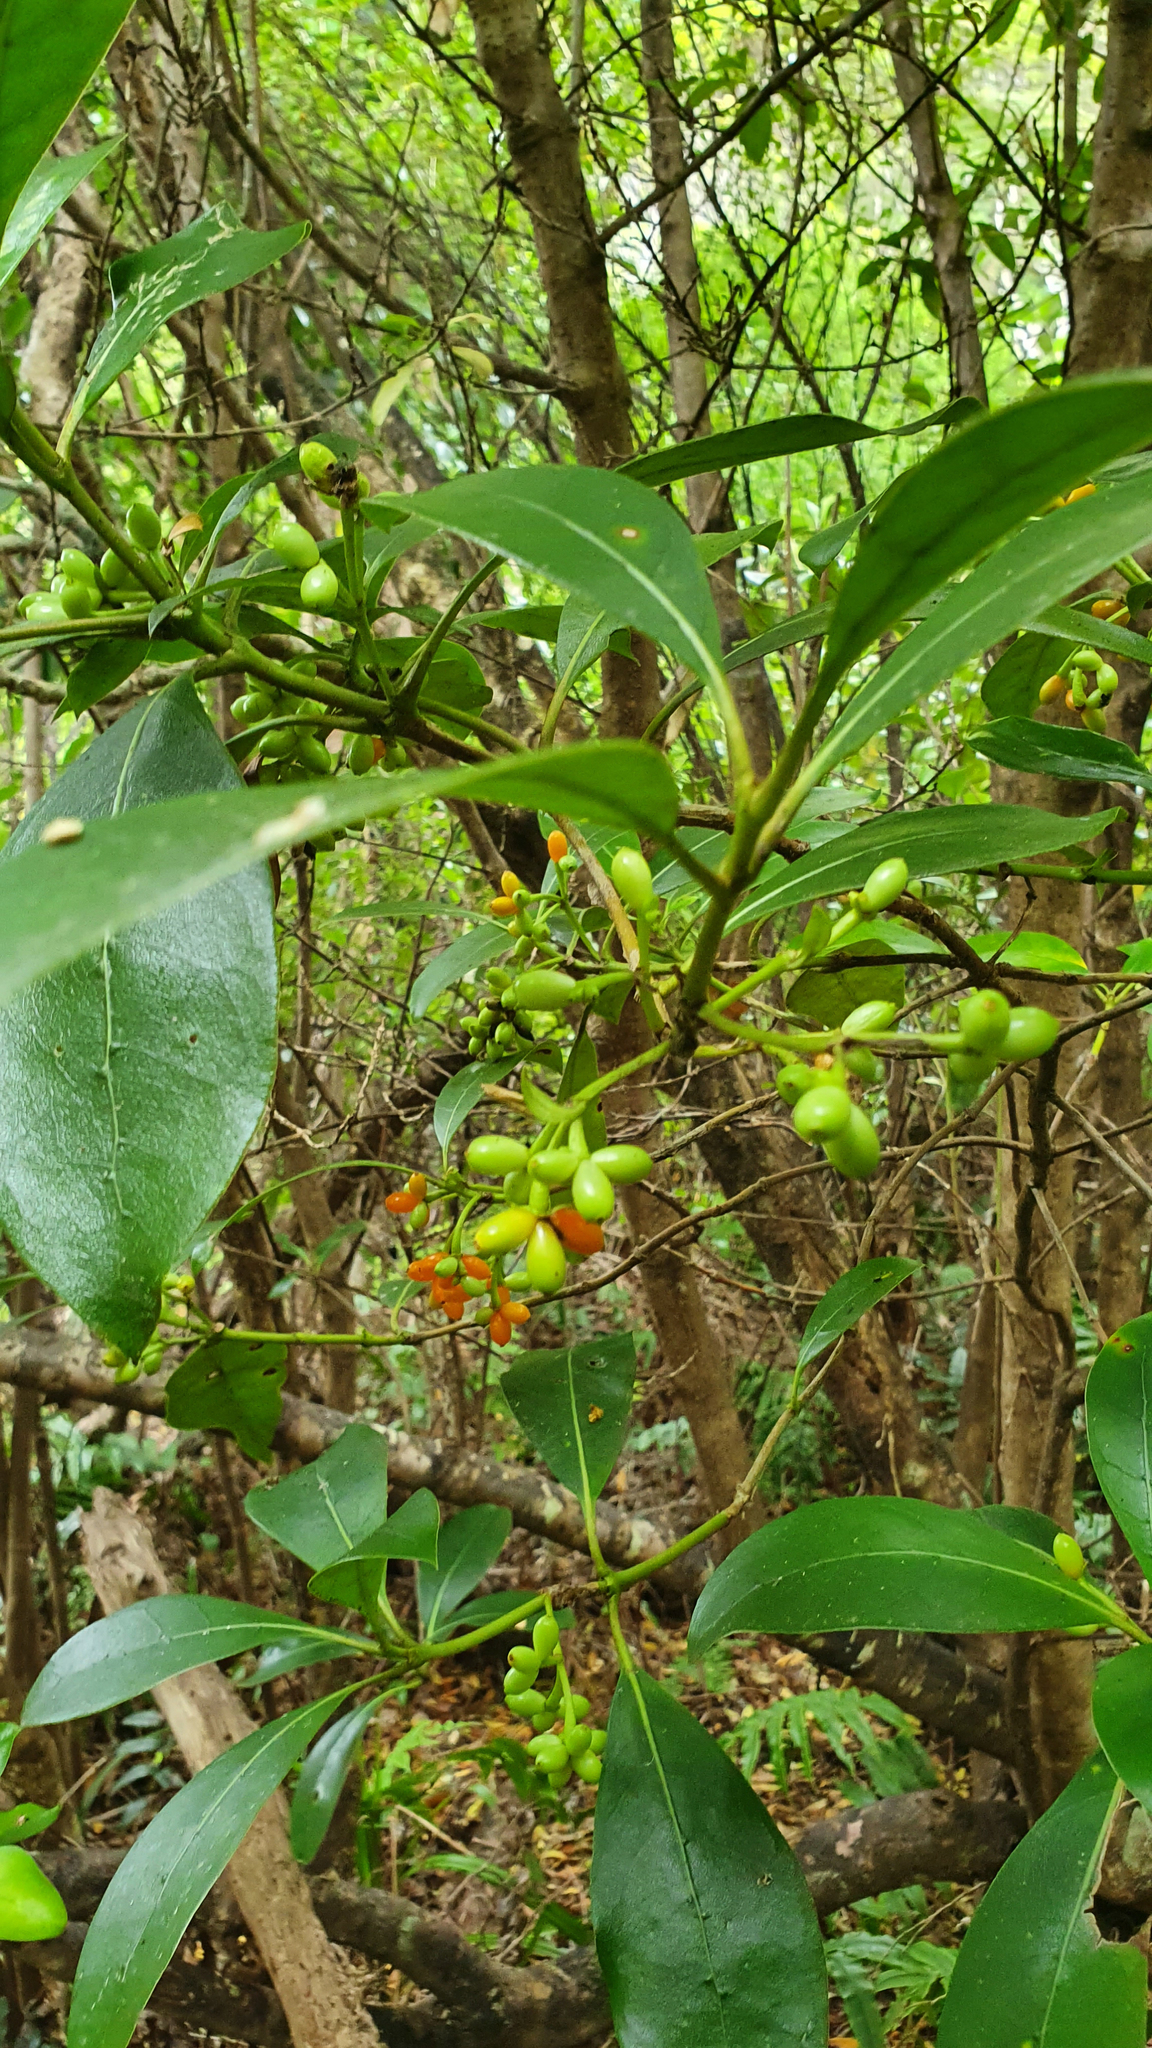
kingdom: Plantae
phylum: Tracheophyta
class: Magnoliopsida
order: Gentianales
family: Rubiaceae
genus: Coprosma
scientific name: Coprosma lucida
